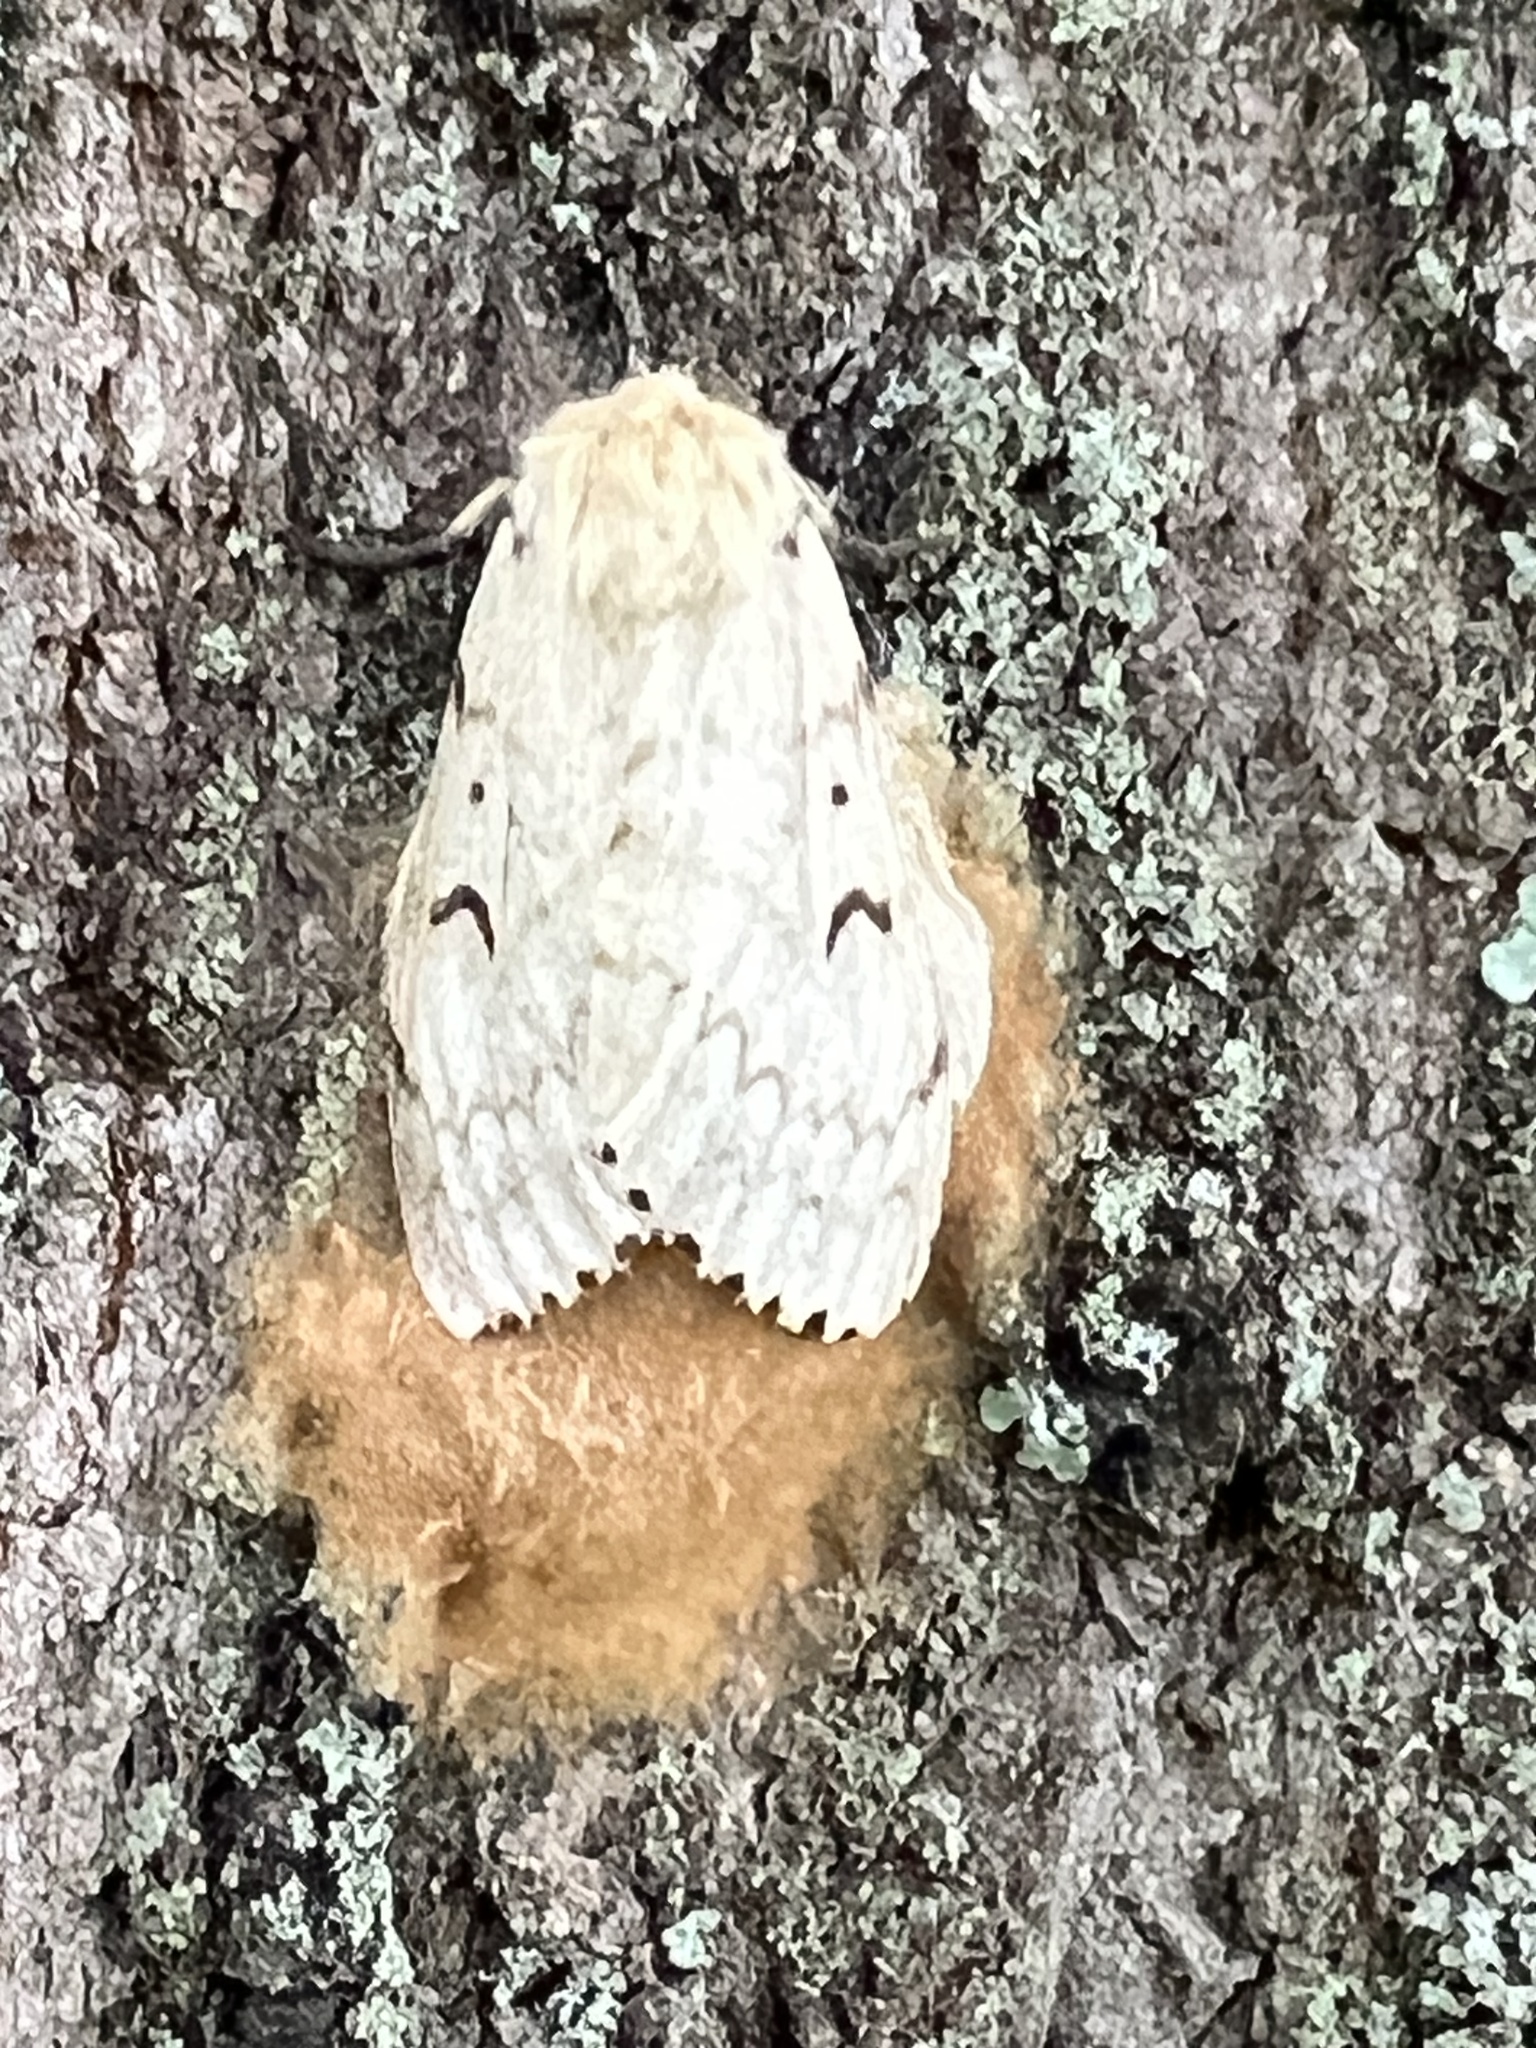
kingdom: Animalia
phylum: Arthropoda
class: Insecta
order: Lepidoptera
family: Erebidae
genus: Lymantria
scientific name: Lymantria dispar
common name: Gypsy moth
